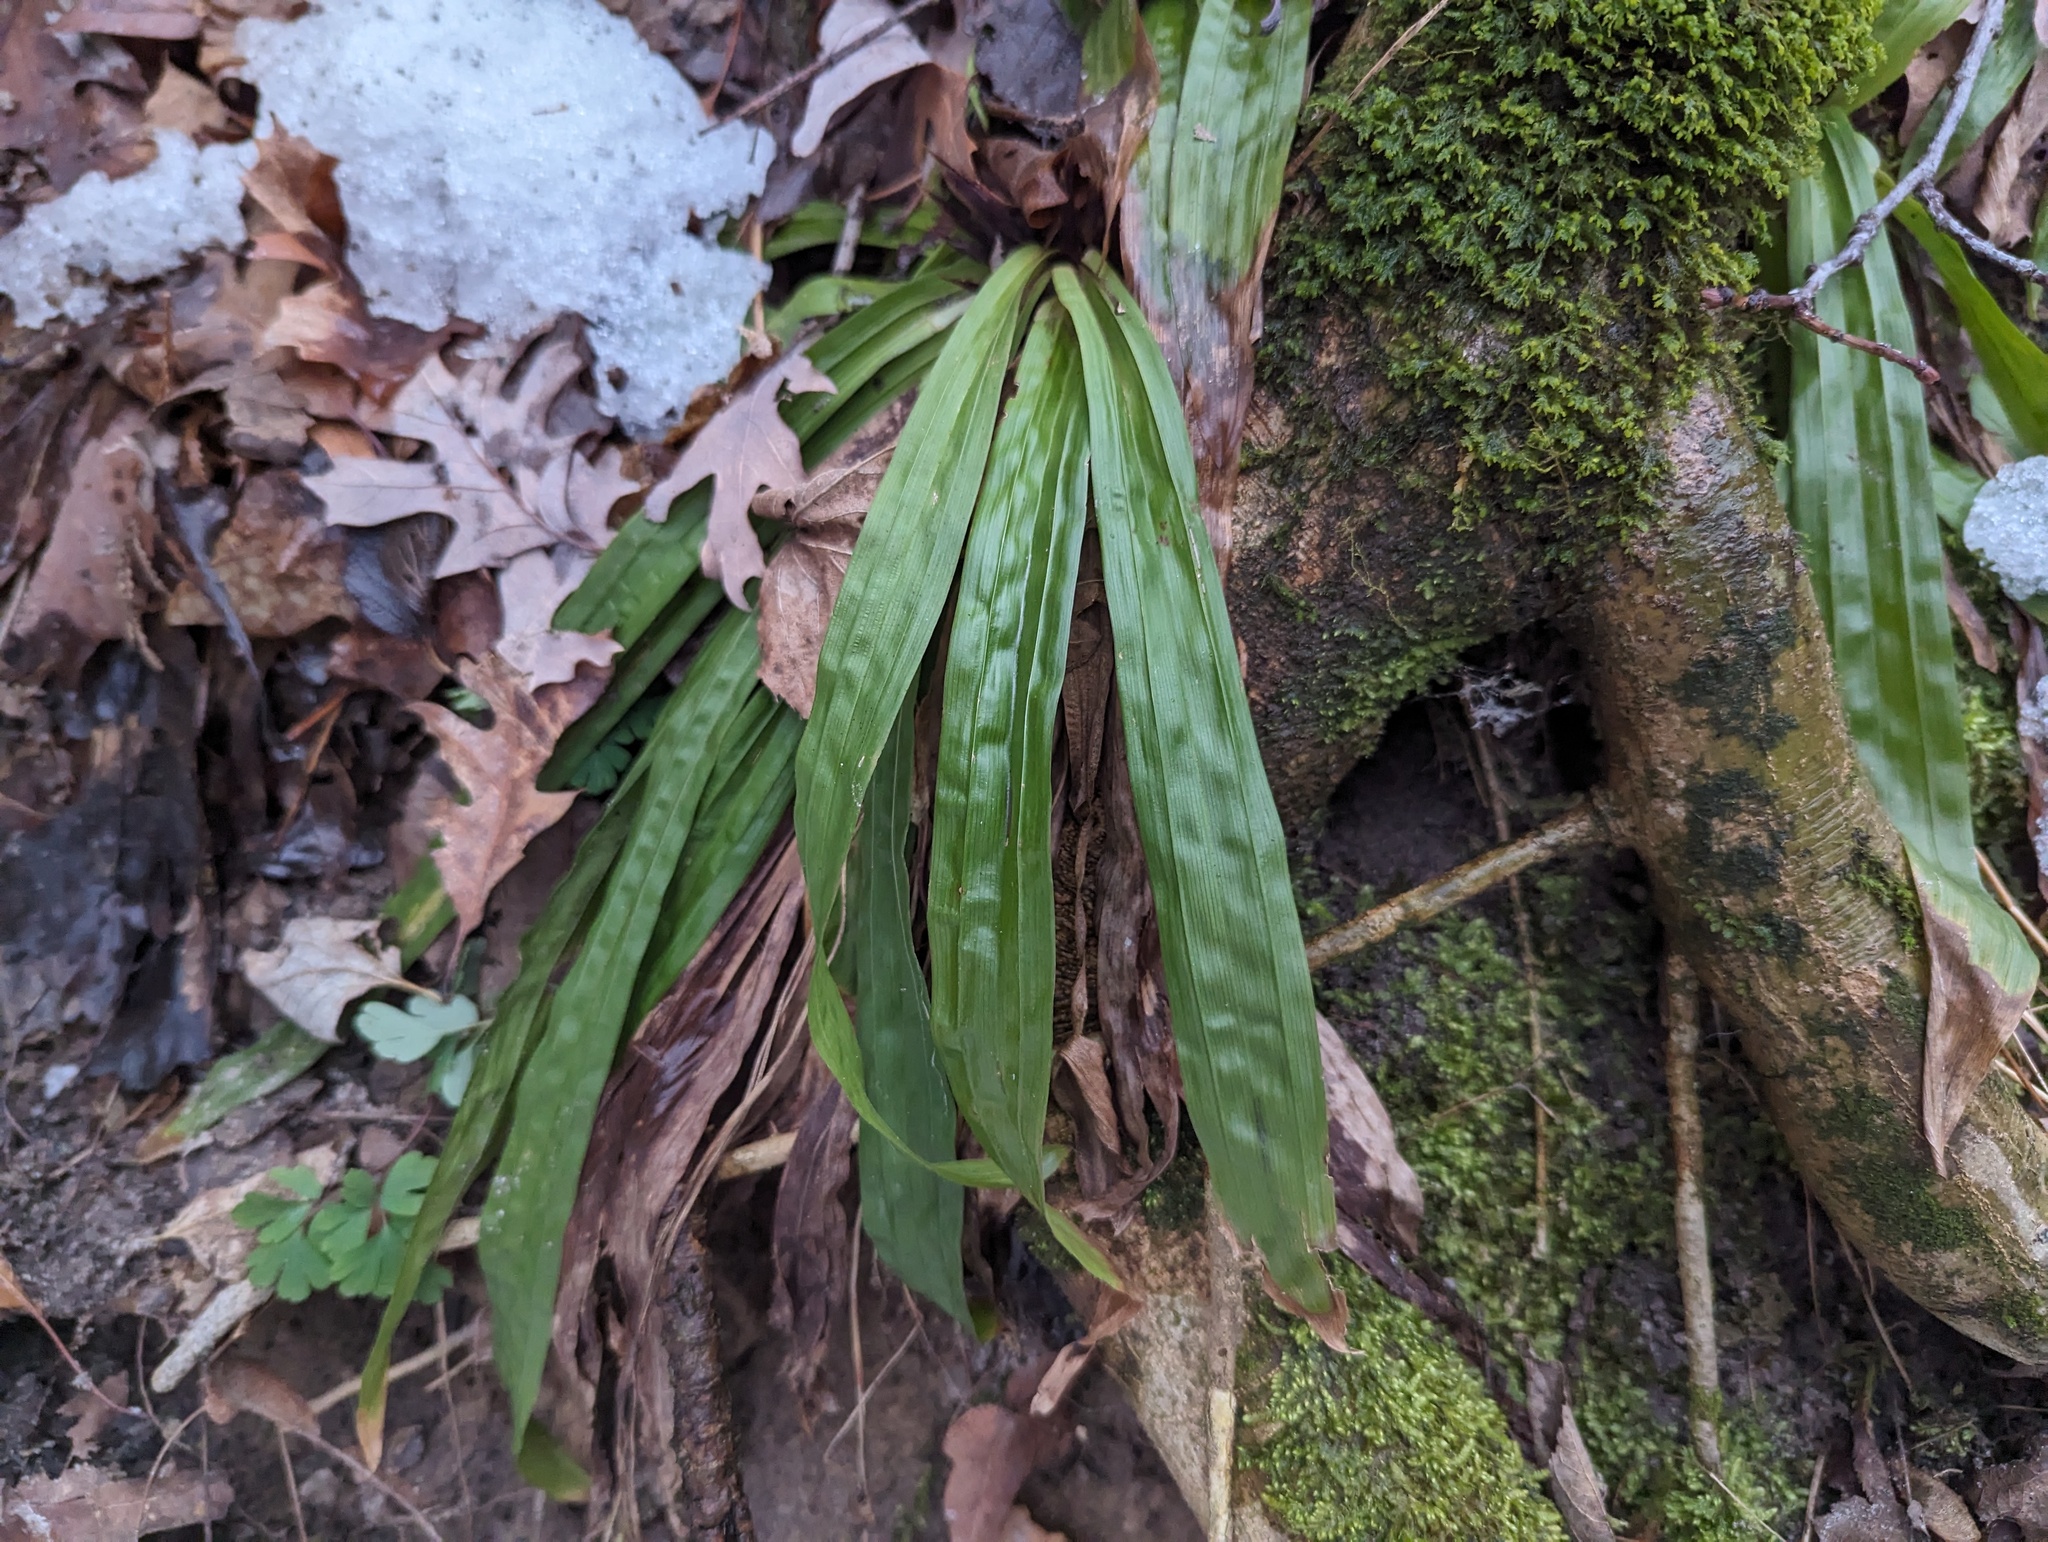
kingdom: Plantae
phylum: Tracheophyta
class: Liliopsida
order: Poales
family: Cyperaceae
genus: Carex
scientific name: Carex plantaginea
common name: Plantain-leaved sedge
